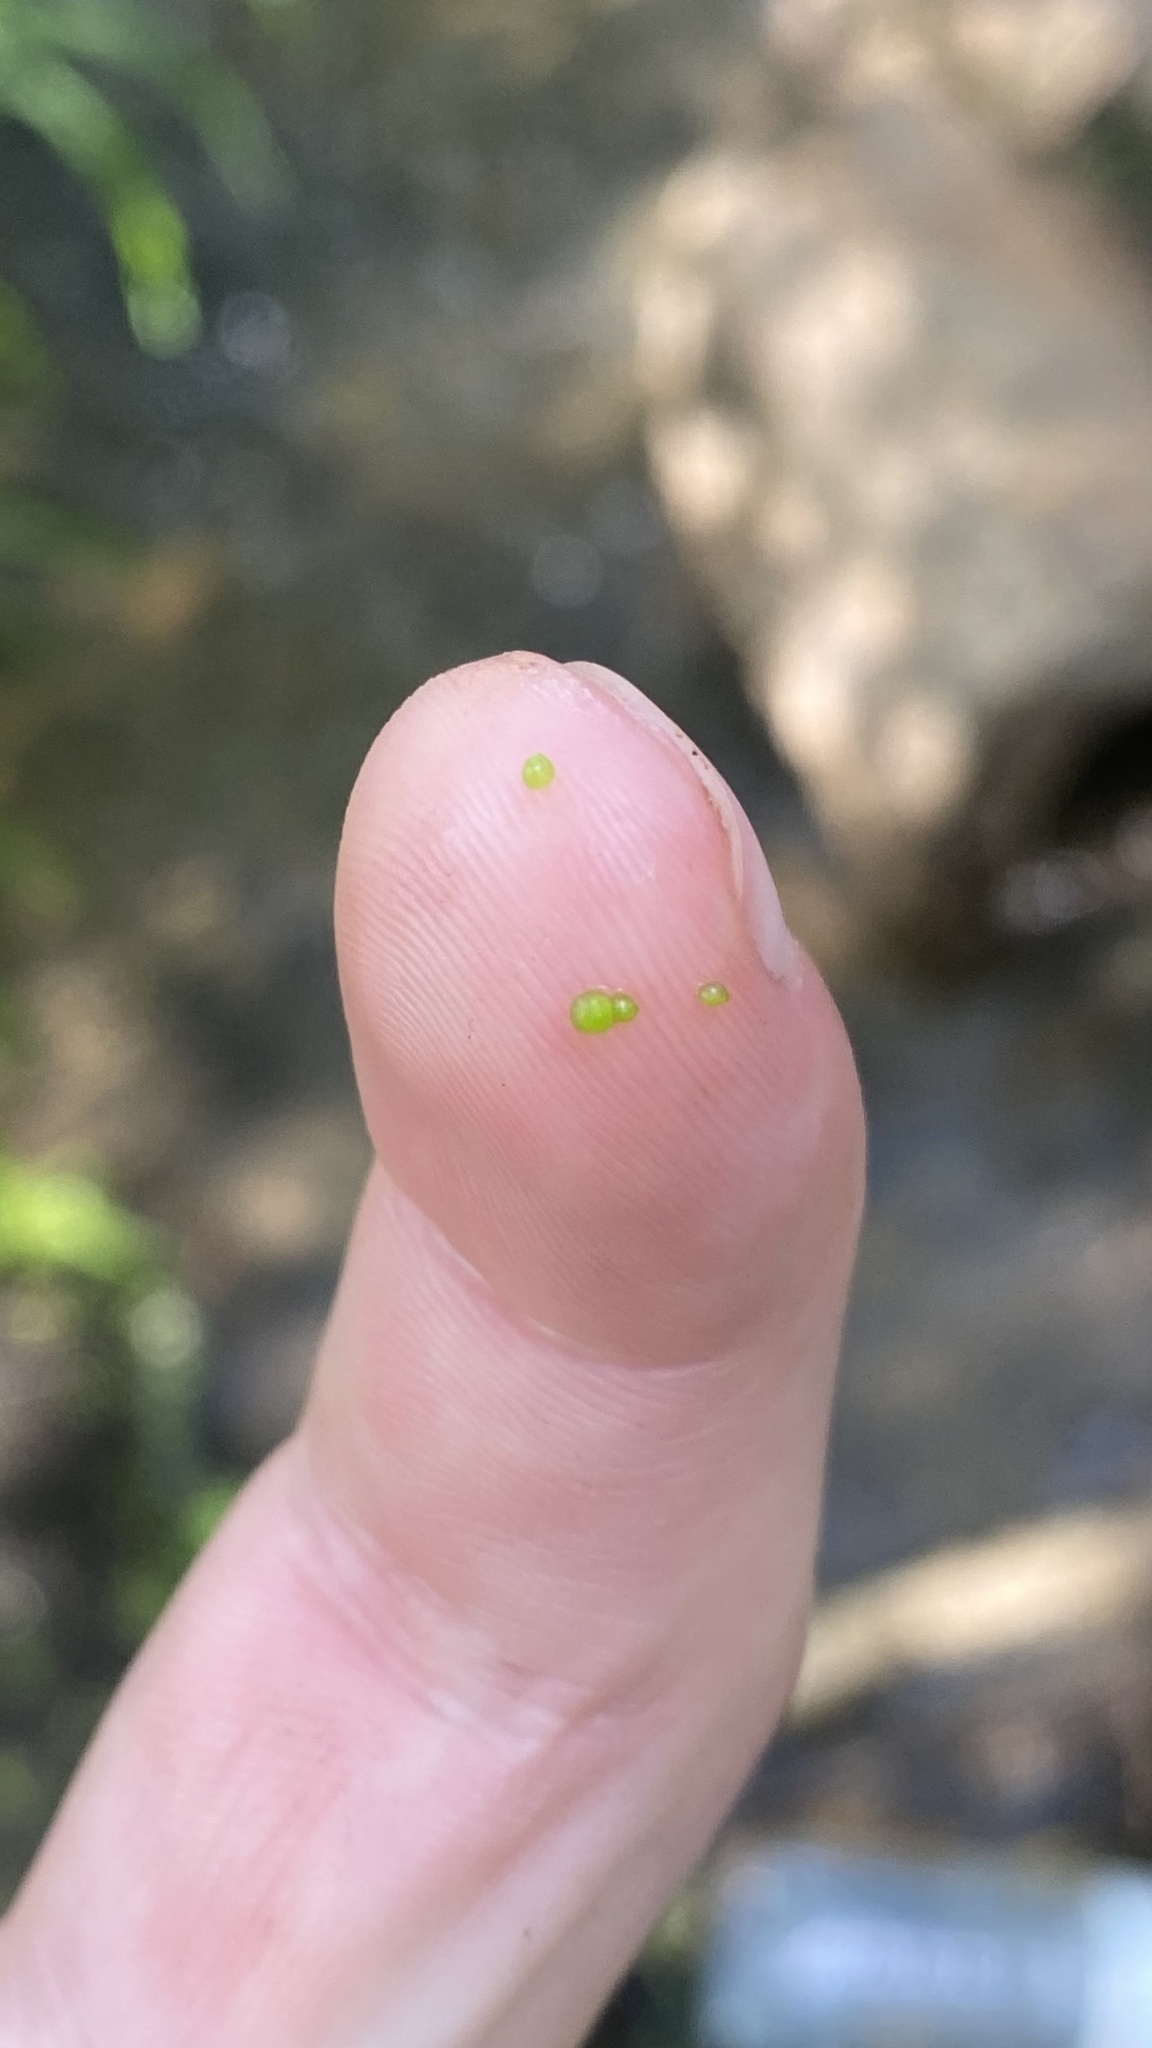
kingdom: Plantae
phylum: Tracheophyta
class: Liliopsida
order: Alismatales
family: Araceae
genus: Wolffia
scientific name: Wolffia arrhiza
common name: Rootless duckweed
